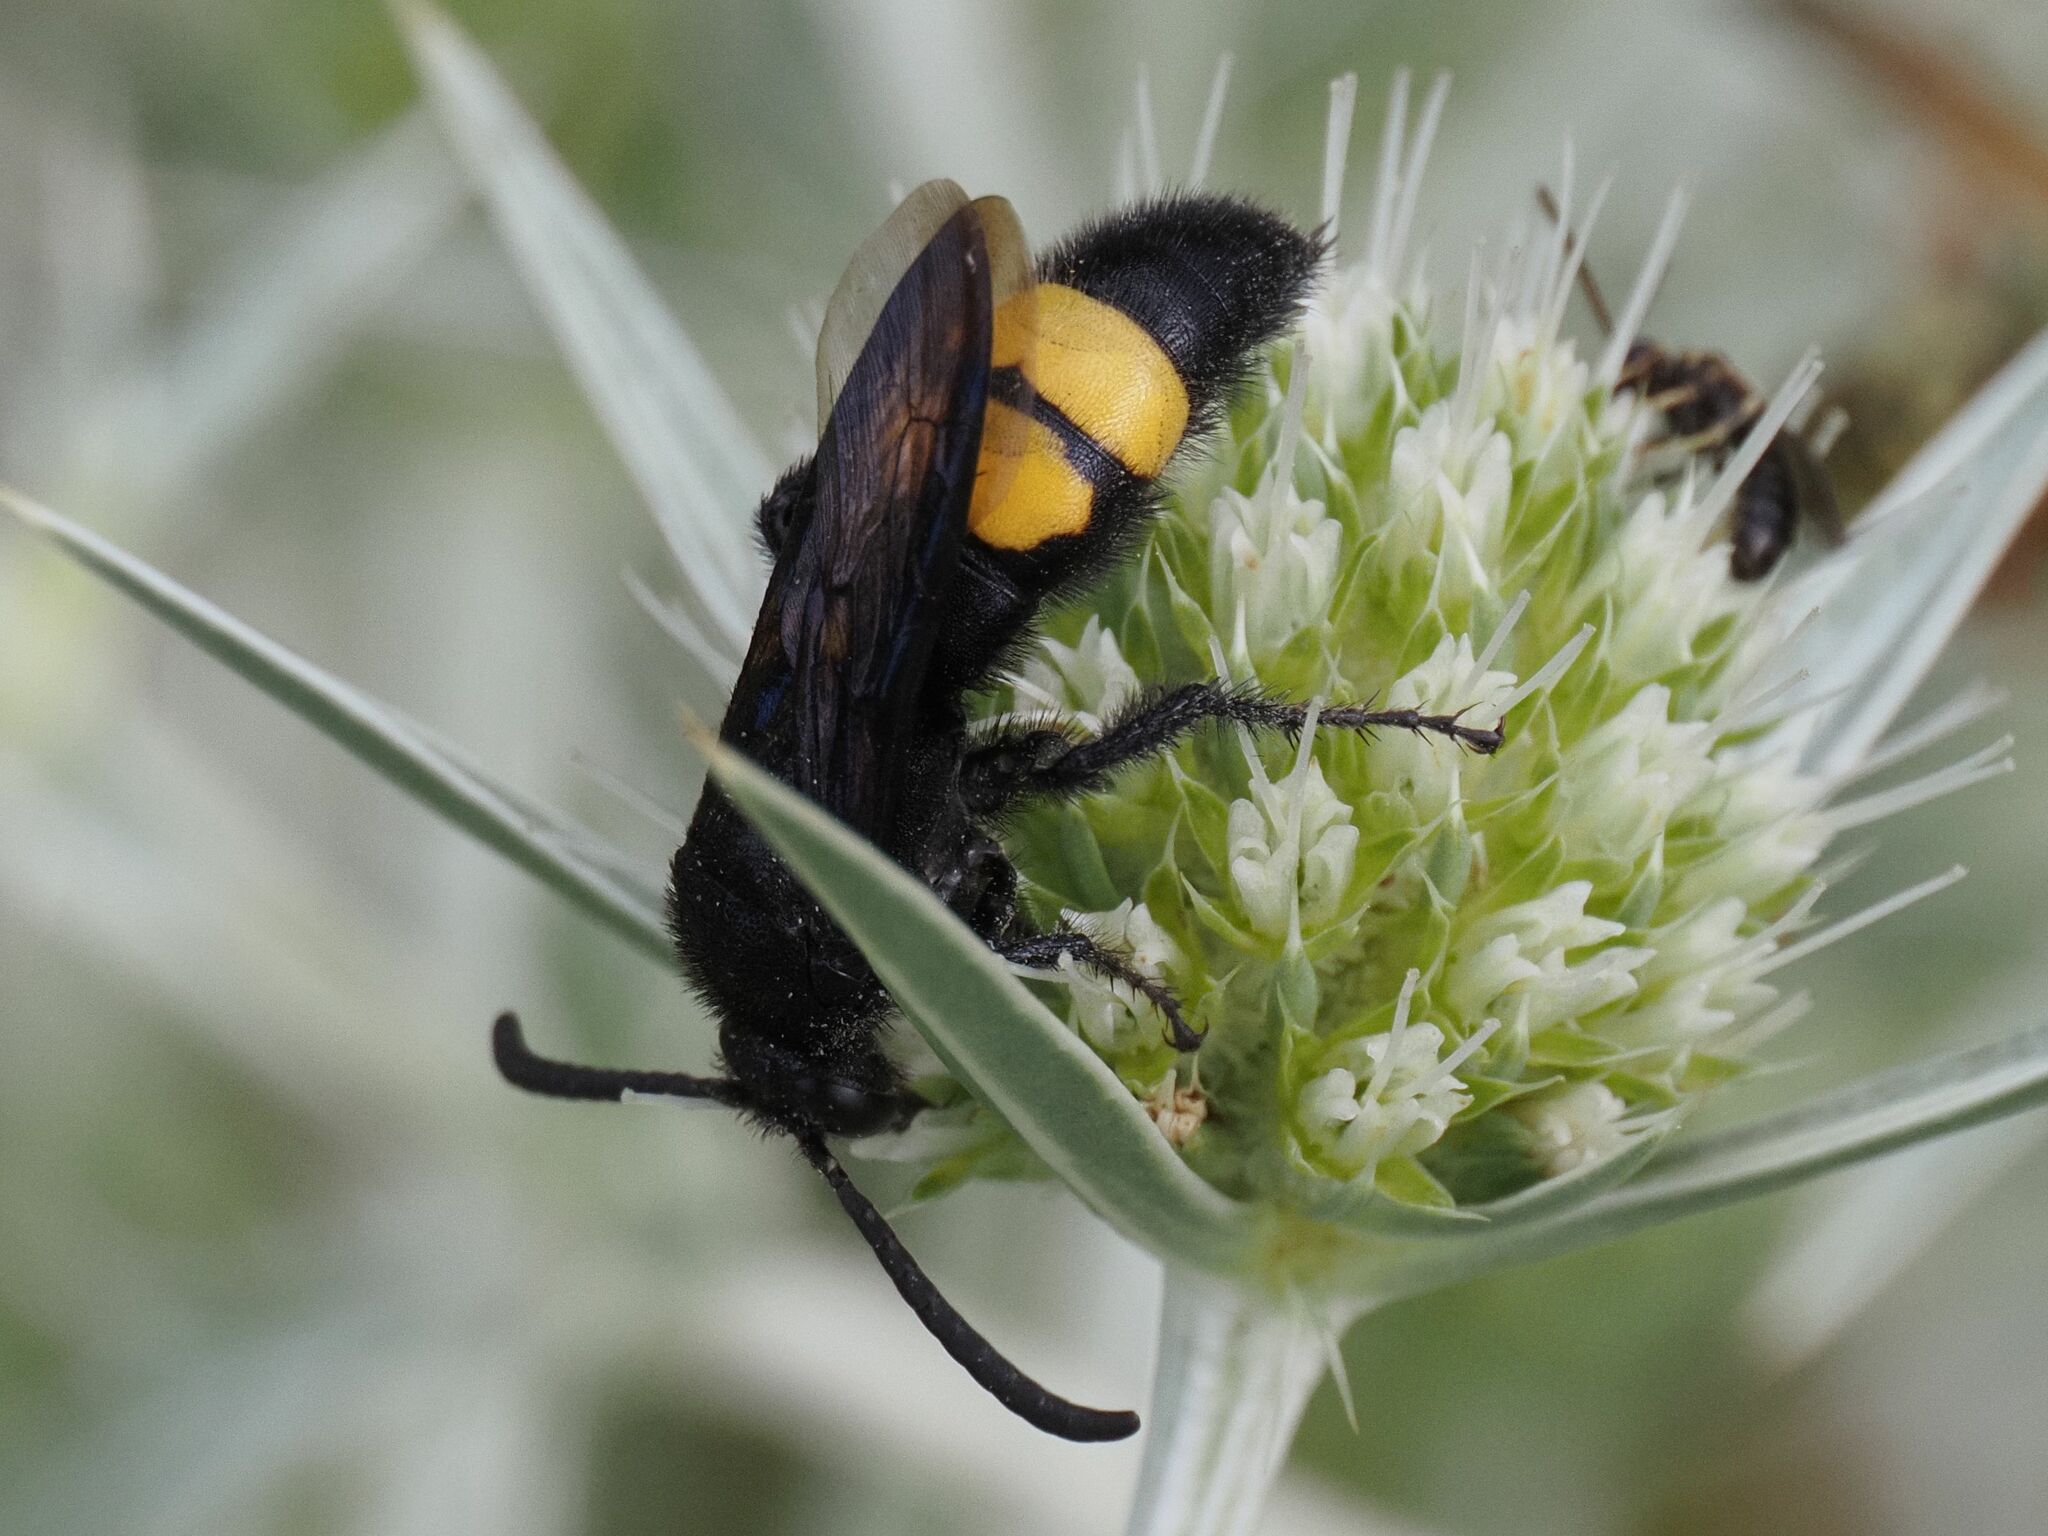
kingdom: Animalia
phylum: Arthropoda
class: Insecta
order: Hymenoptera
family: Scoliidae
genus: Scolia
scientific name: Scolia hirta
